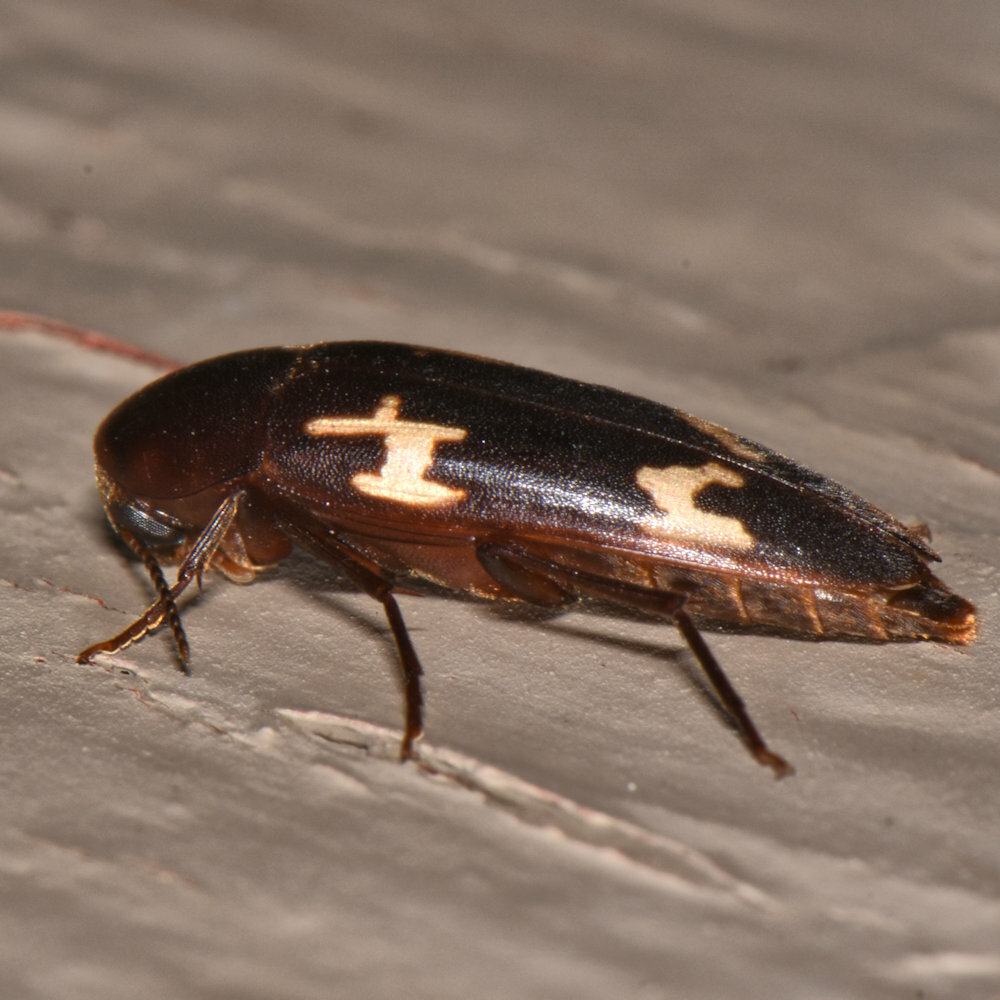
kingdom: Animalia
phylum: Arthropoda
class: Insecta
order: Coleoptera
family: Melandryidae
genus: Dircaea
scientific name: Dircaea liturata
